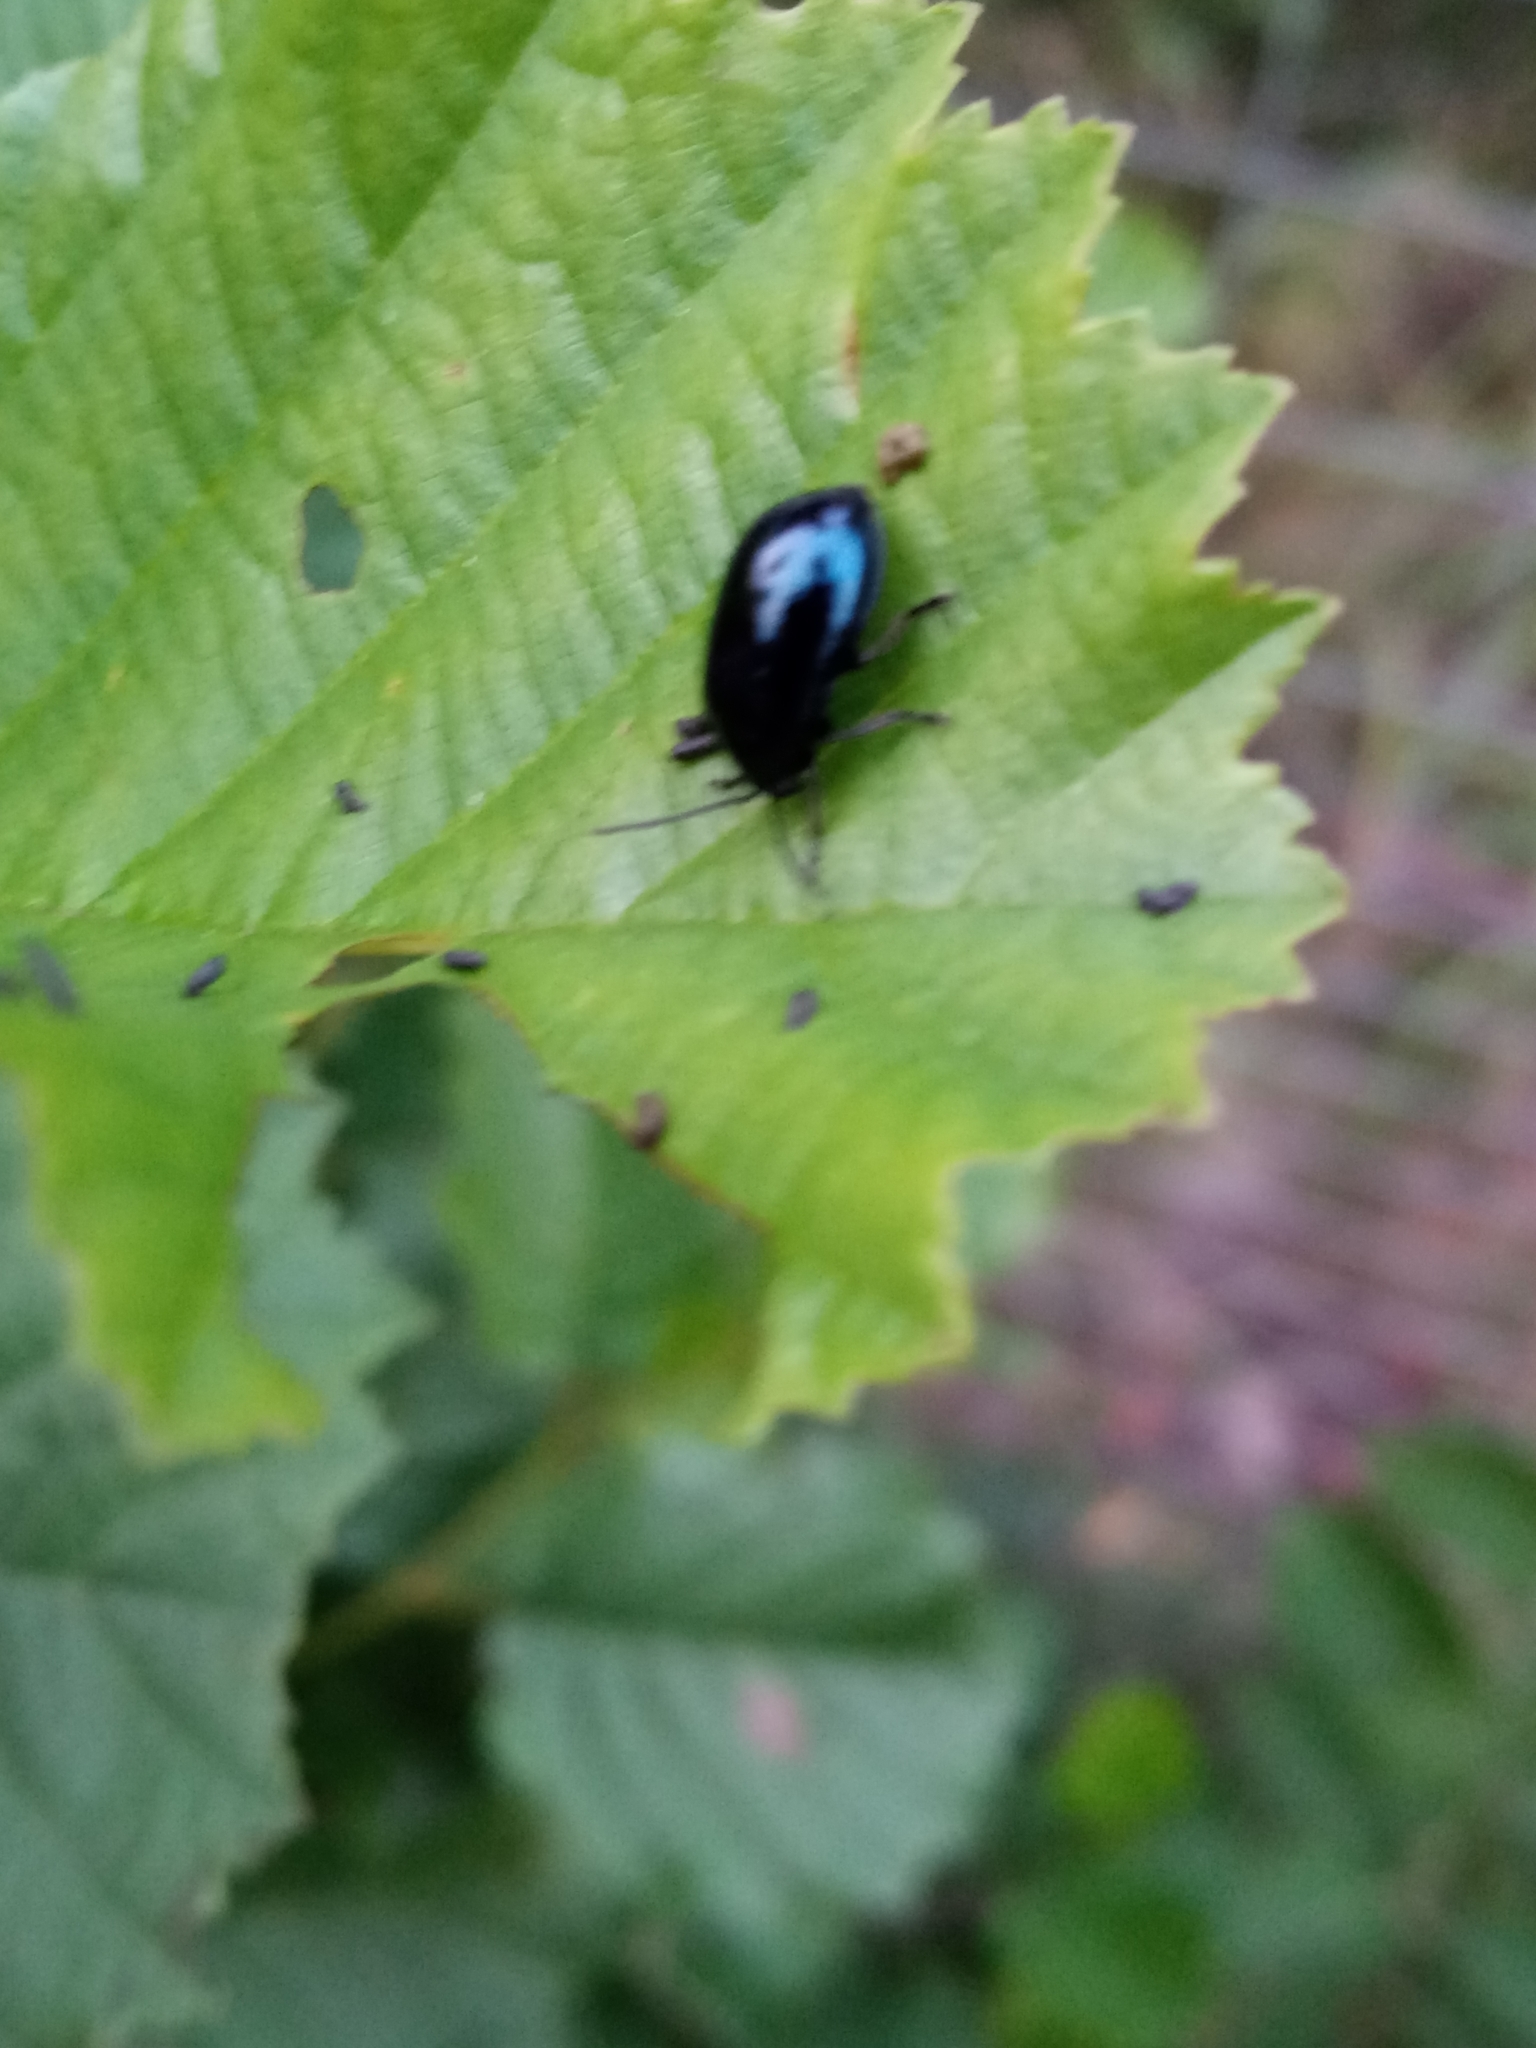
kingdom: Animalia
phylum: Arthropoda
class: Insecta
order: Coleoptera
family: Chrysomelidae
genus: Agelastica
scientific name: Agelastica alni
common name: Alder leaf beetle
